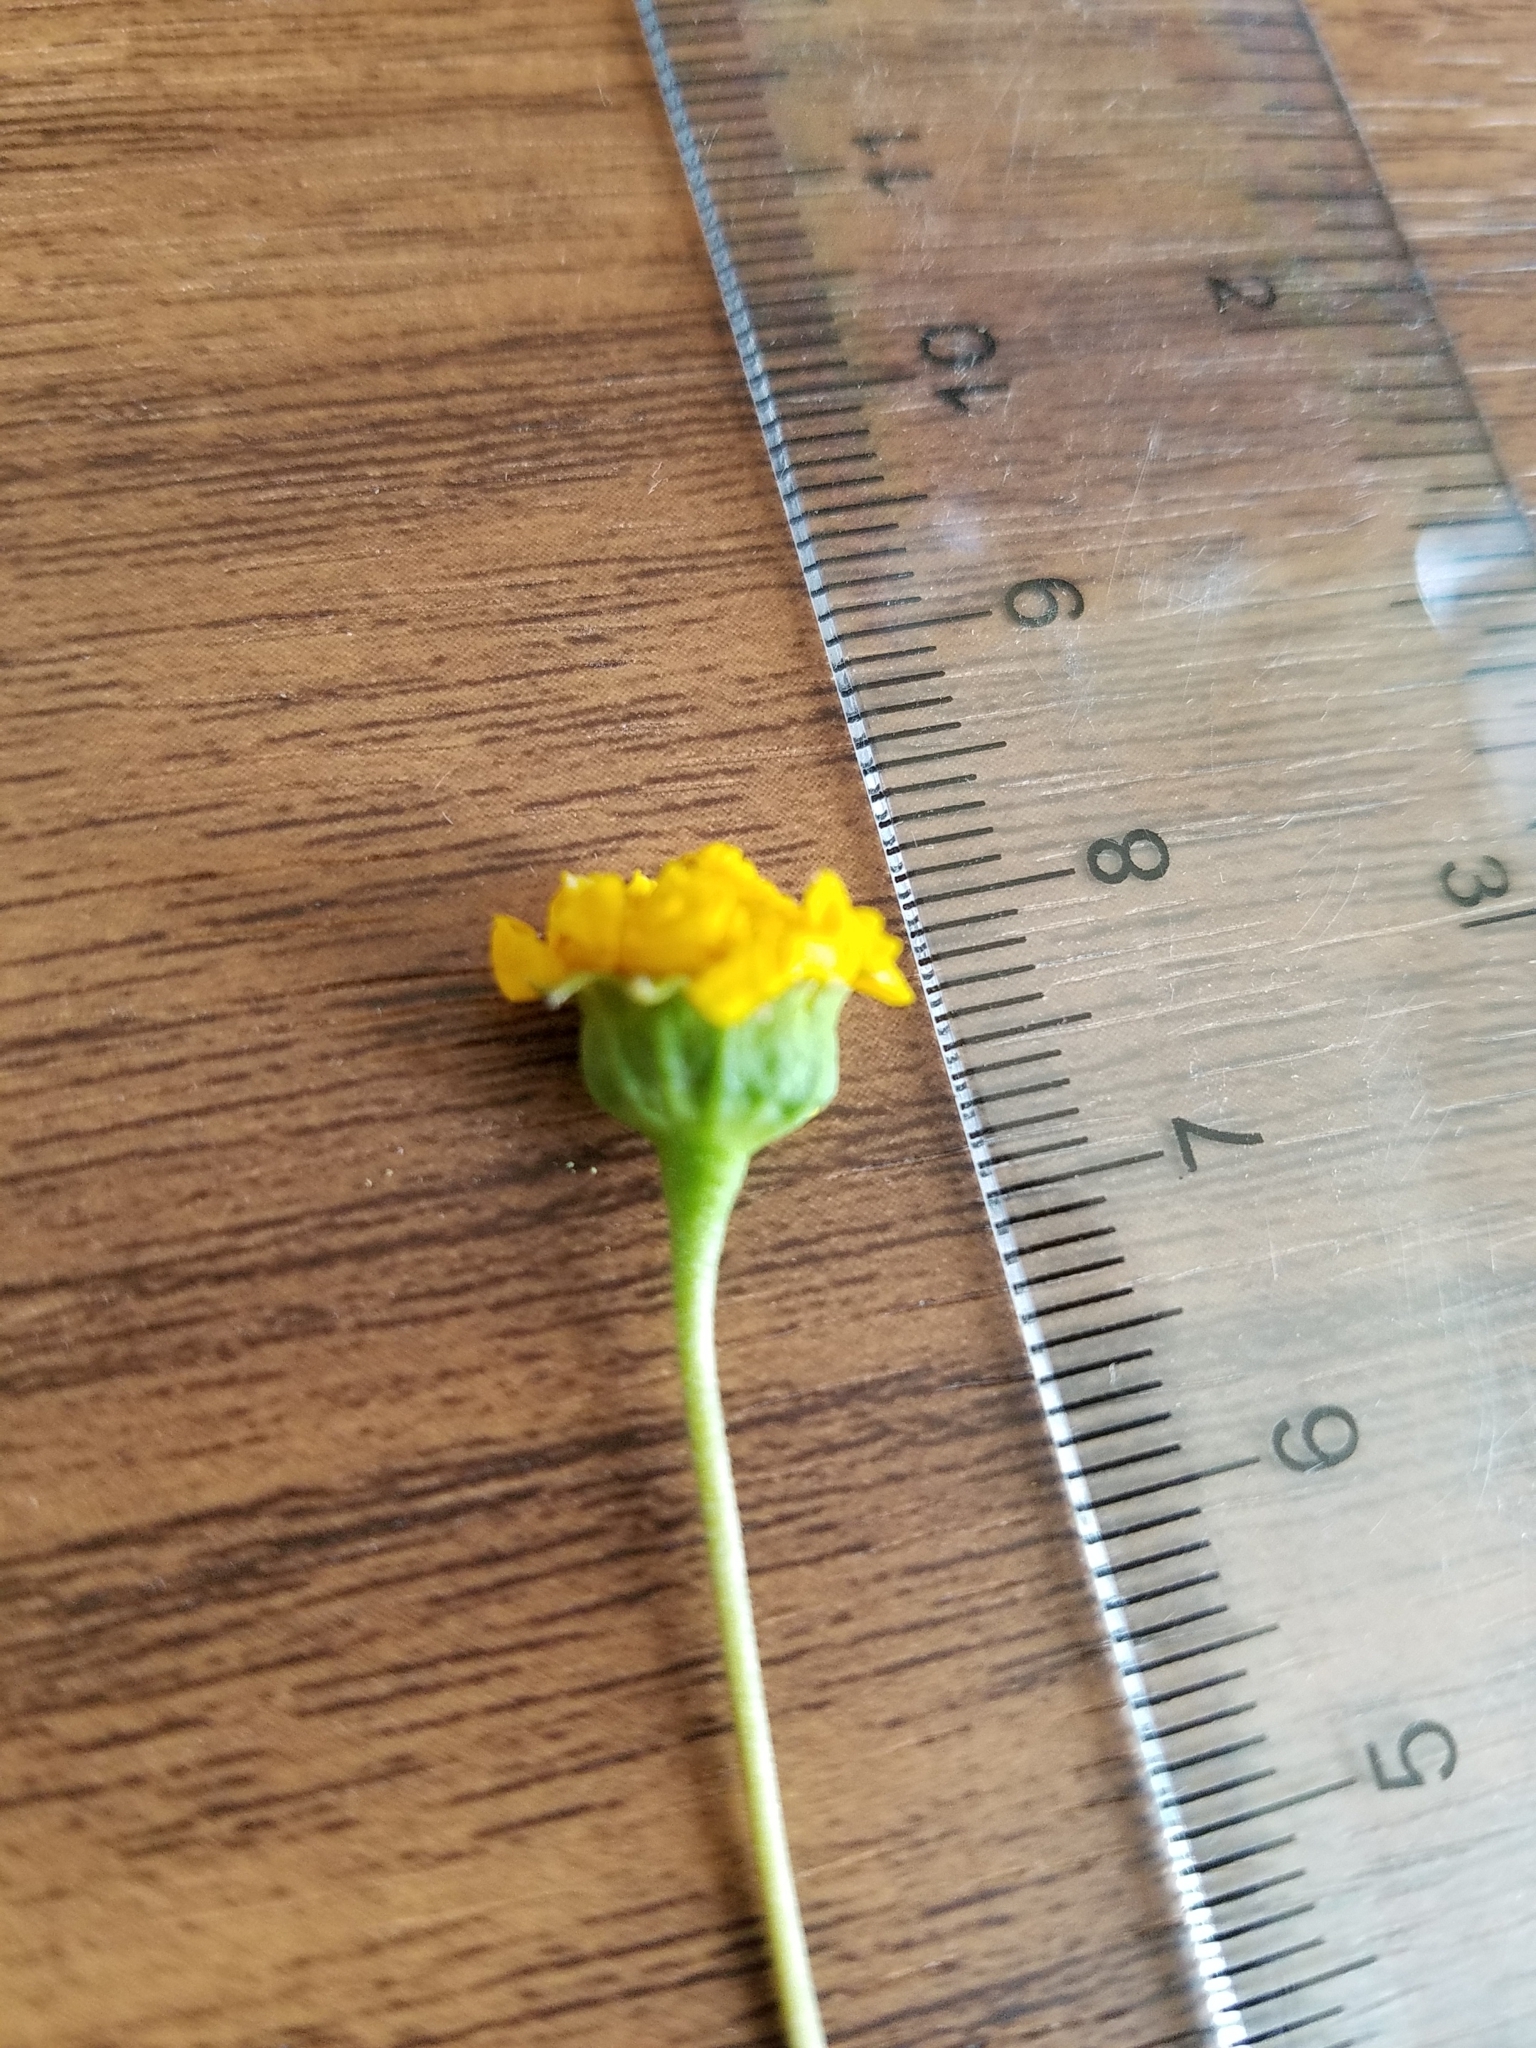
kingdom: Plantae
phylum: Tracheophyta
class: Magnoliopsida
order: Asterales
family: Asteraceae
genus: Lasthenia
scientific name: Lasthenia ferrisiae
